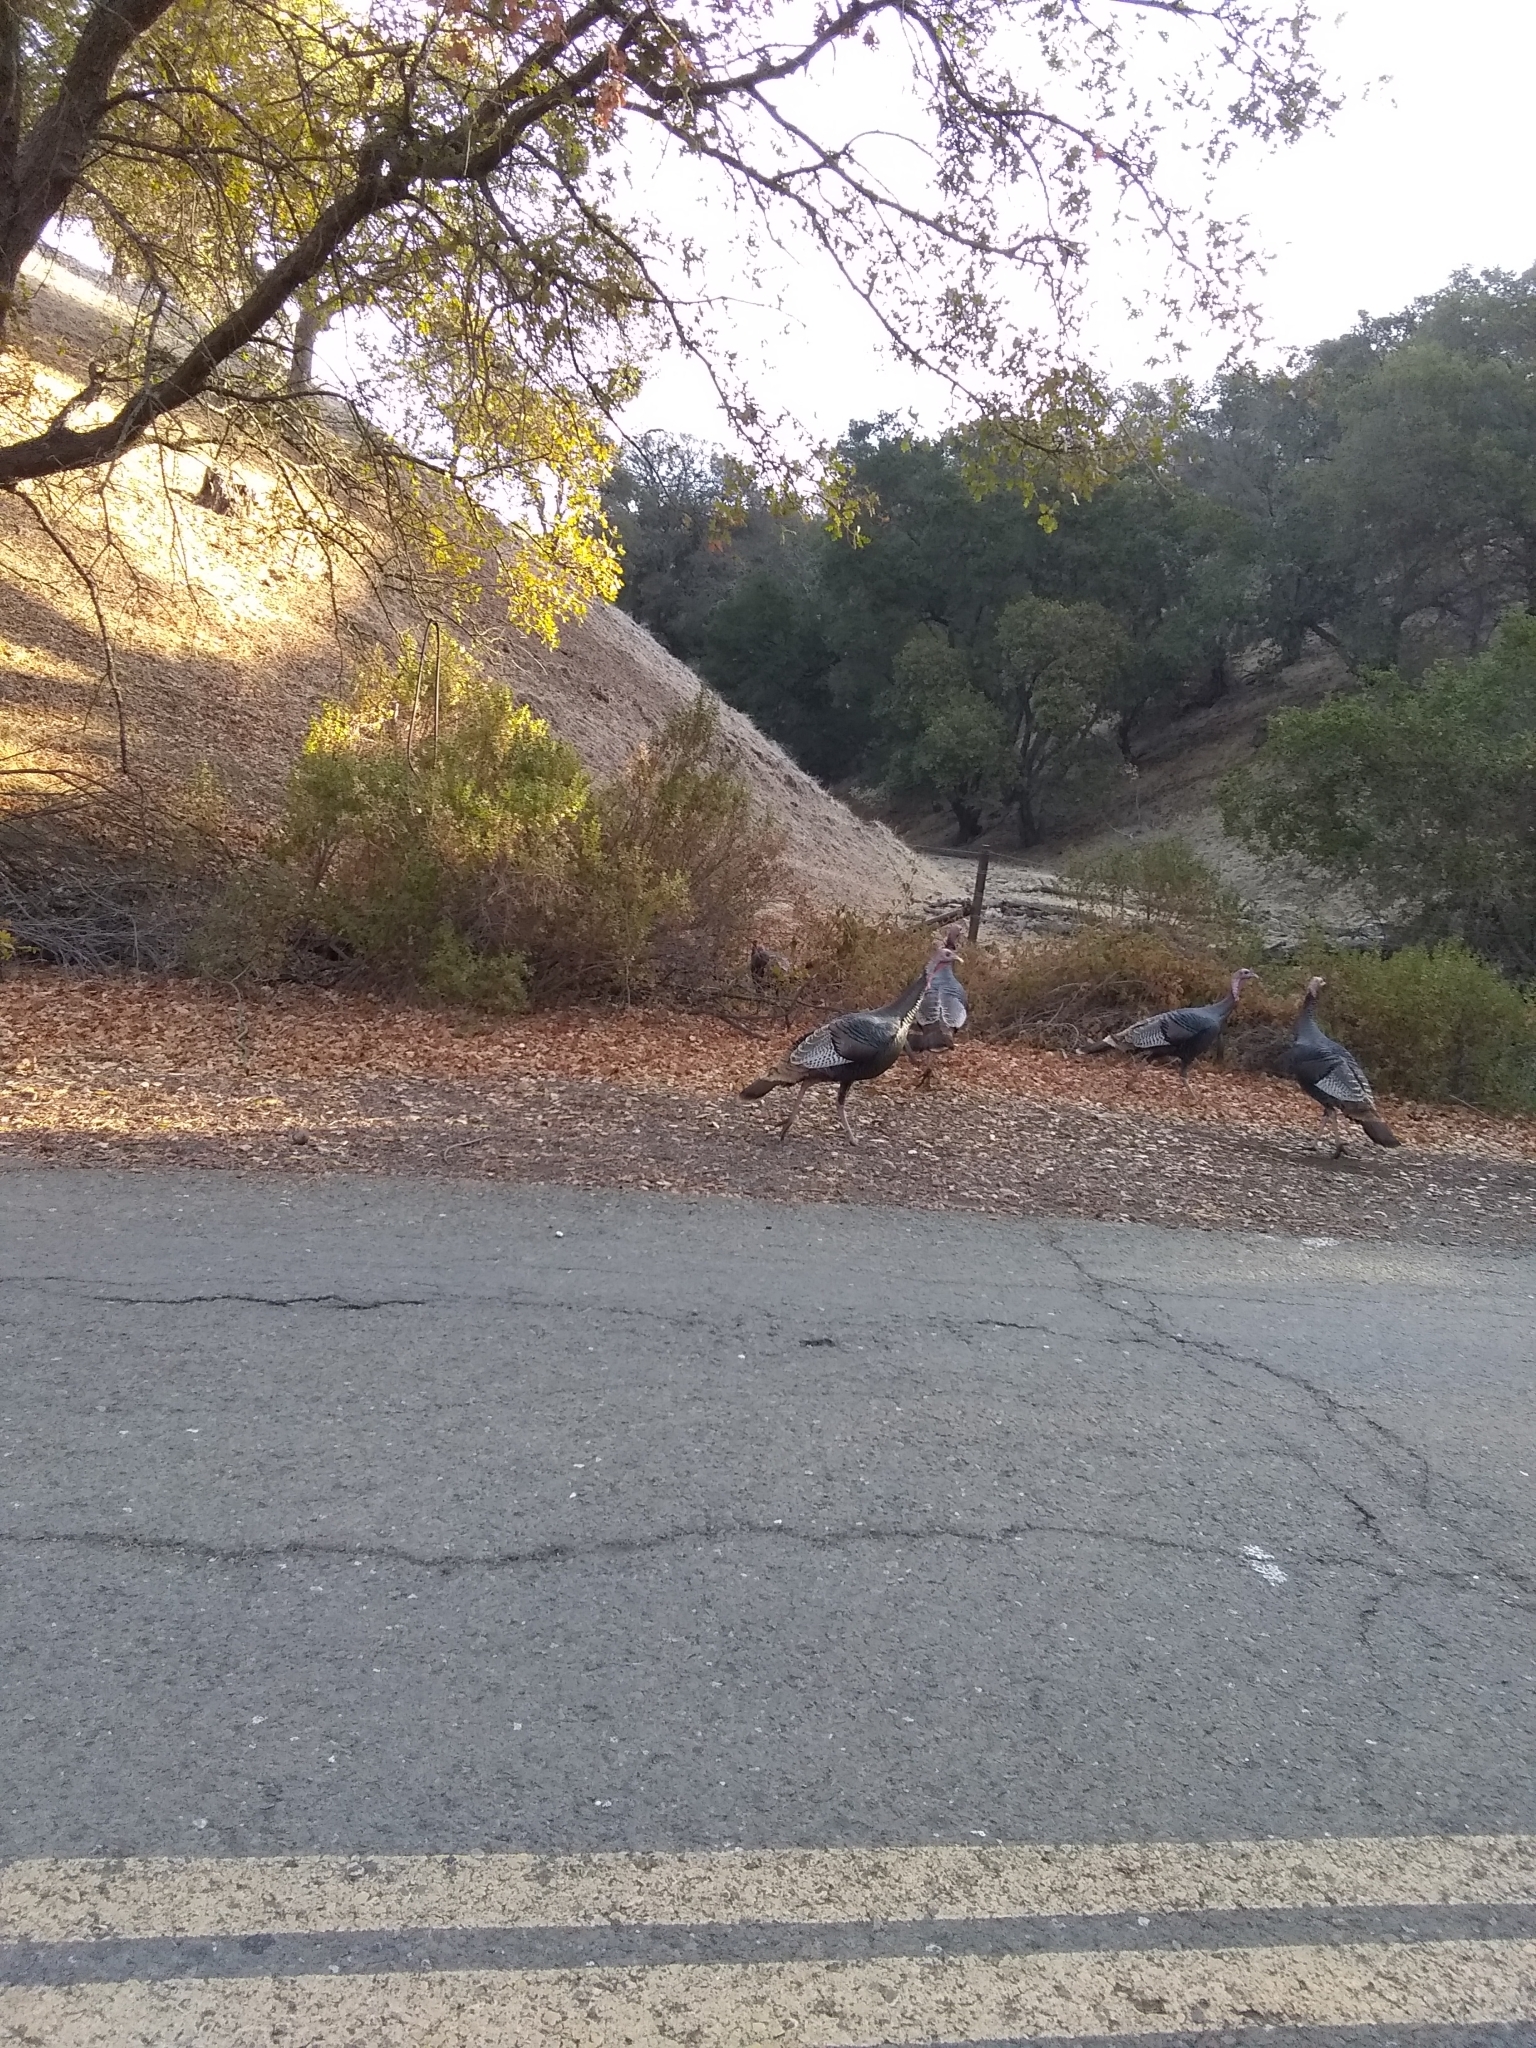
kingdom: Animalia
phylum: Chordata
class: Aves
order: Galliformes
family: Phasianidae
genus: Meleagris
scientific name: Meleagris gallopavo
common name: Wild turkey
